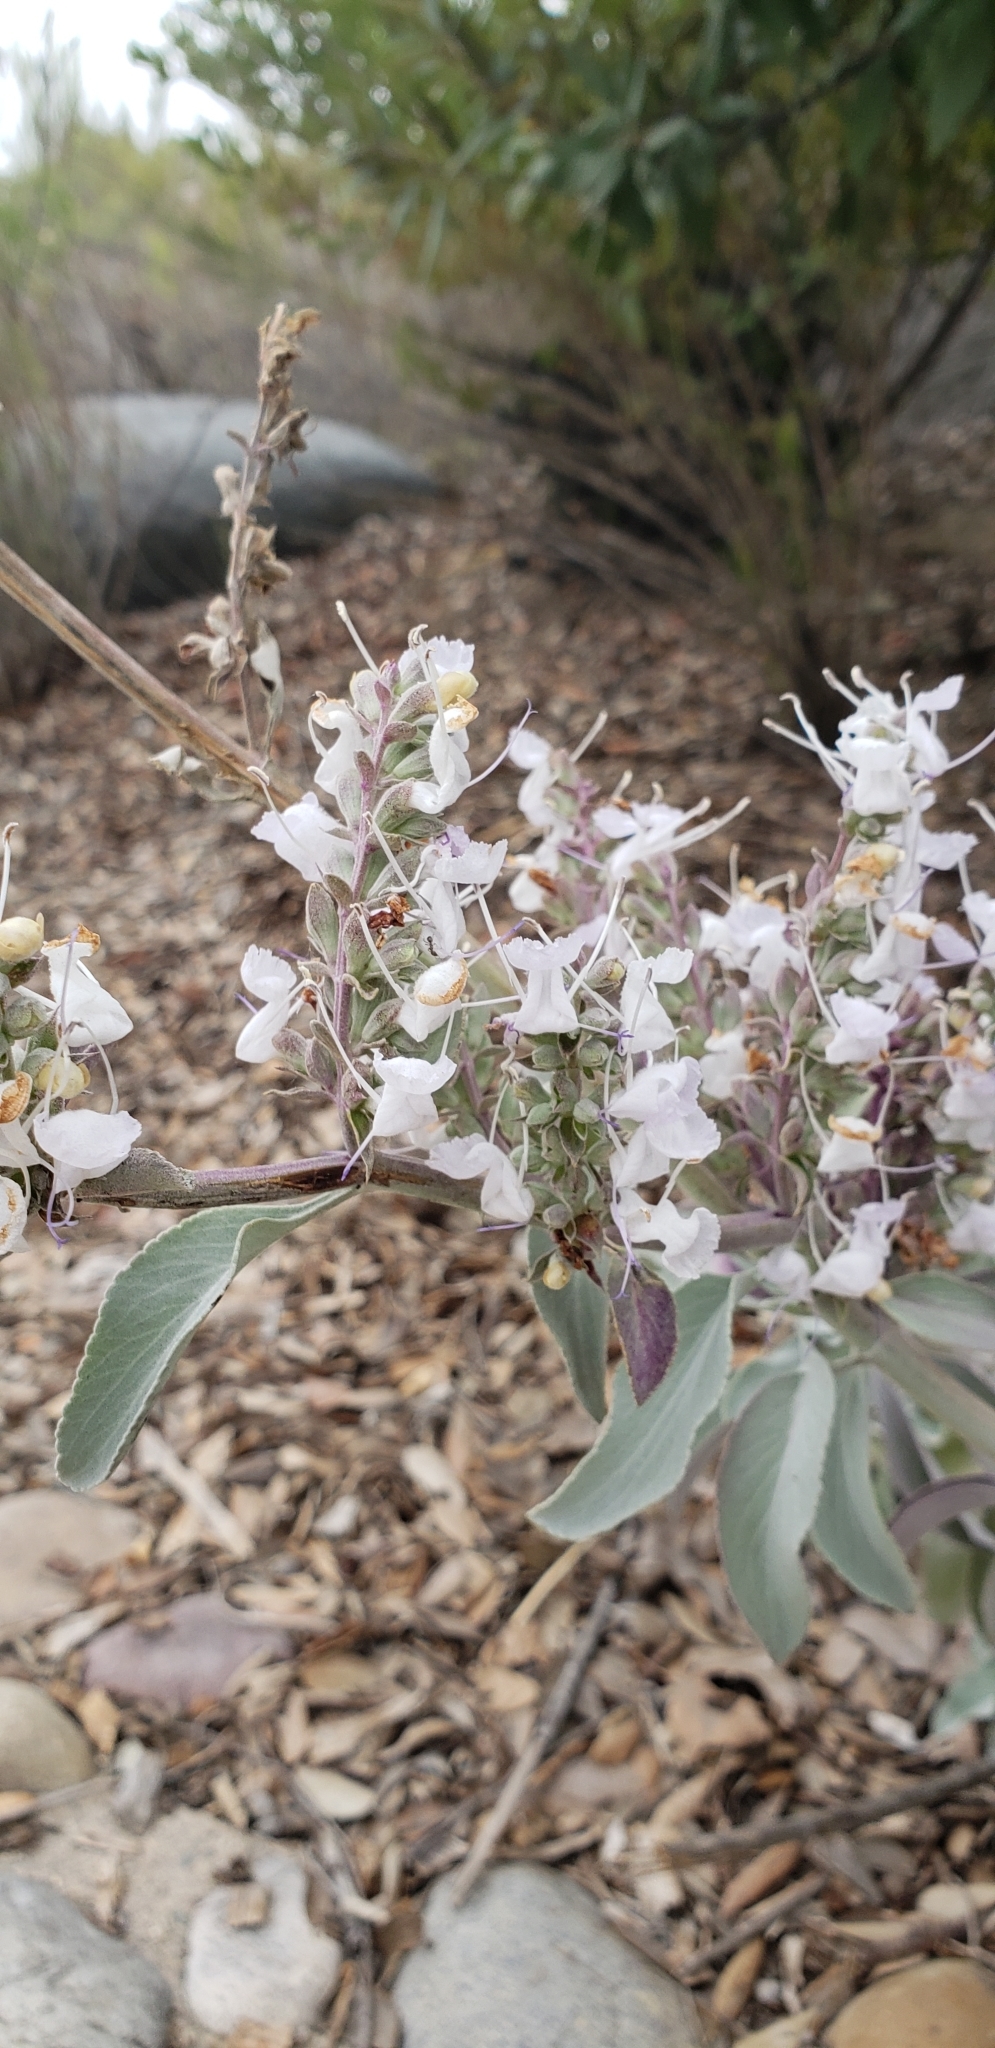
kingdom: Plantae
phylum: Tracheophyta
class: Magnoliopsida
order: Lamiales
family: Lamiaceae
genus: Salvia
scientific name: Salvia apiana
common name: White sage
